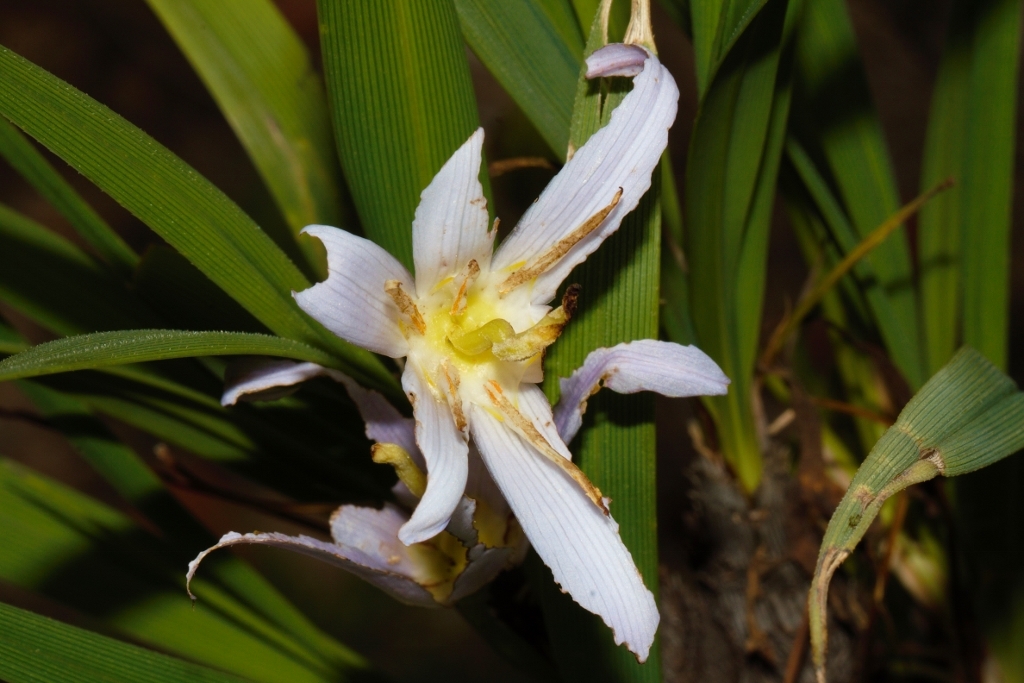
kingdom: Plantae
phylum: Tracheophyta
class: Liliopsida
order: Pandanales
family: Velloziaceae
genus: Xerophyta
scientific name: Xerophyta suaveolens
